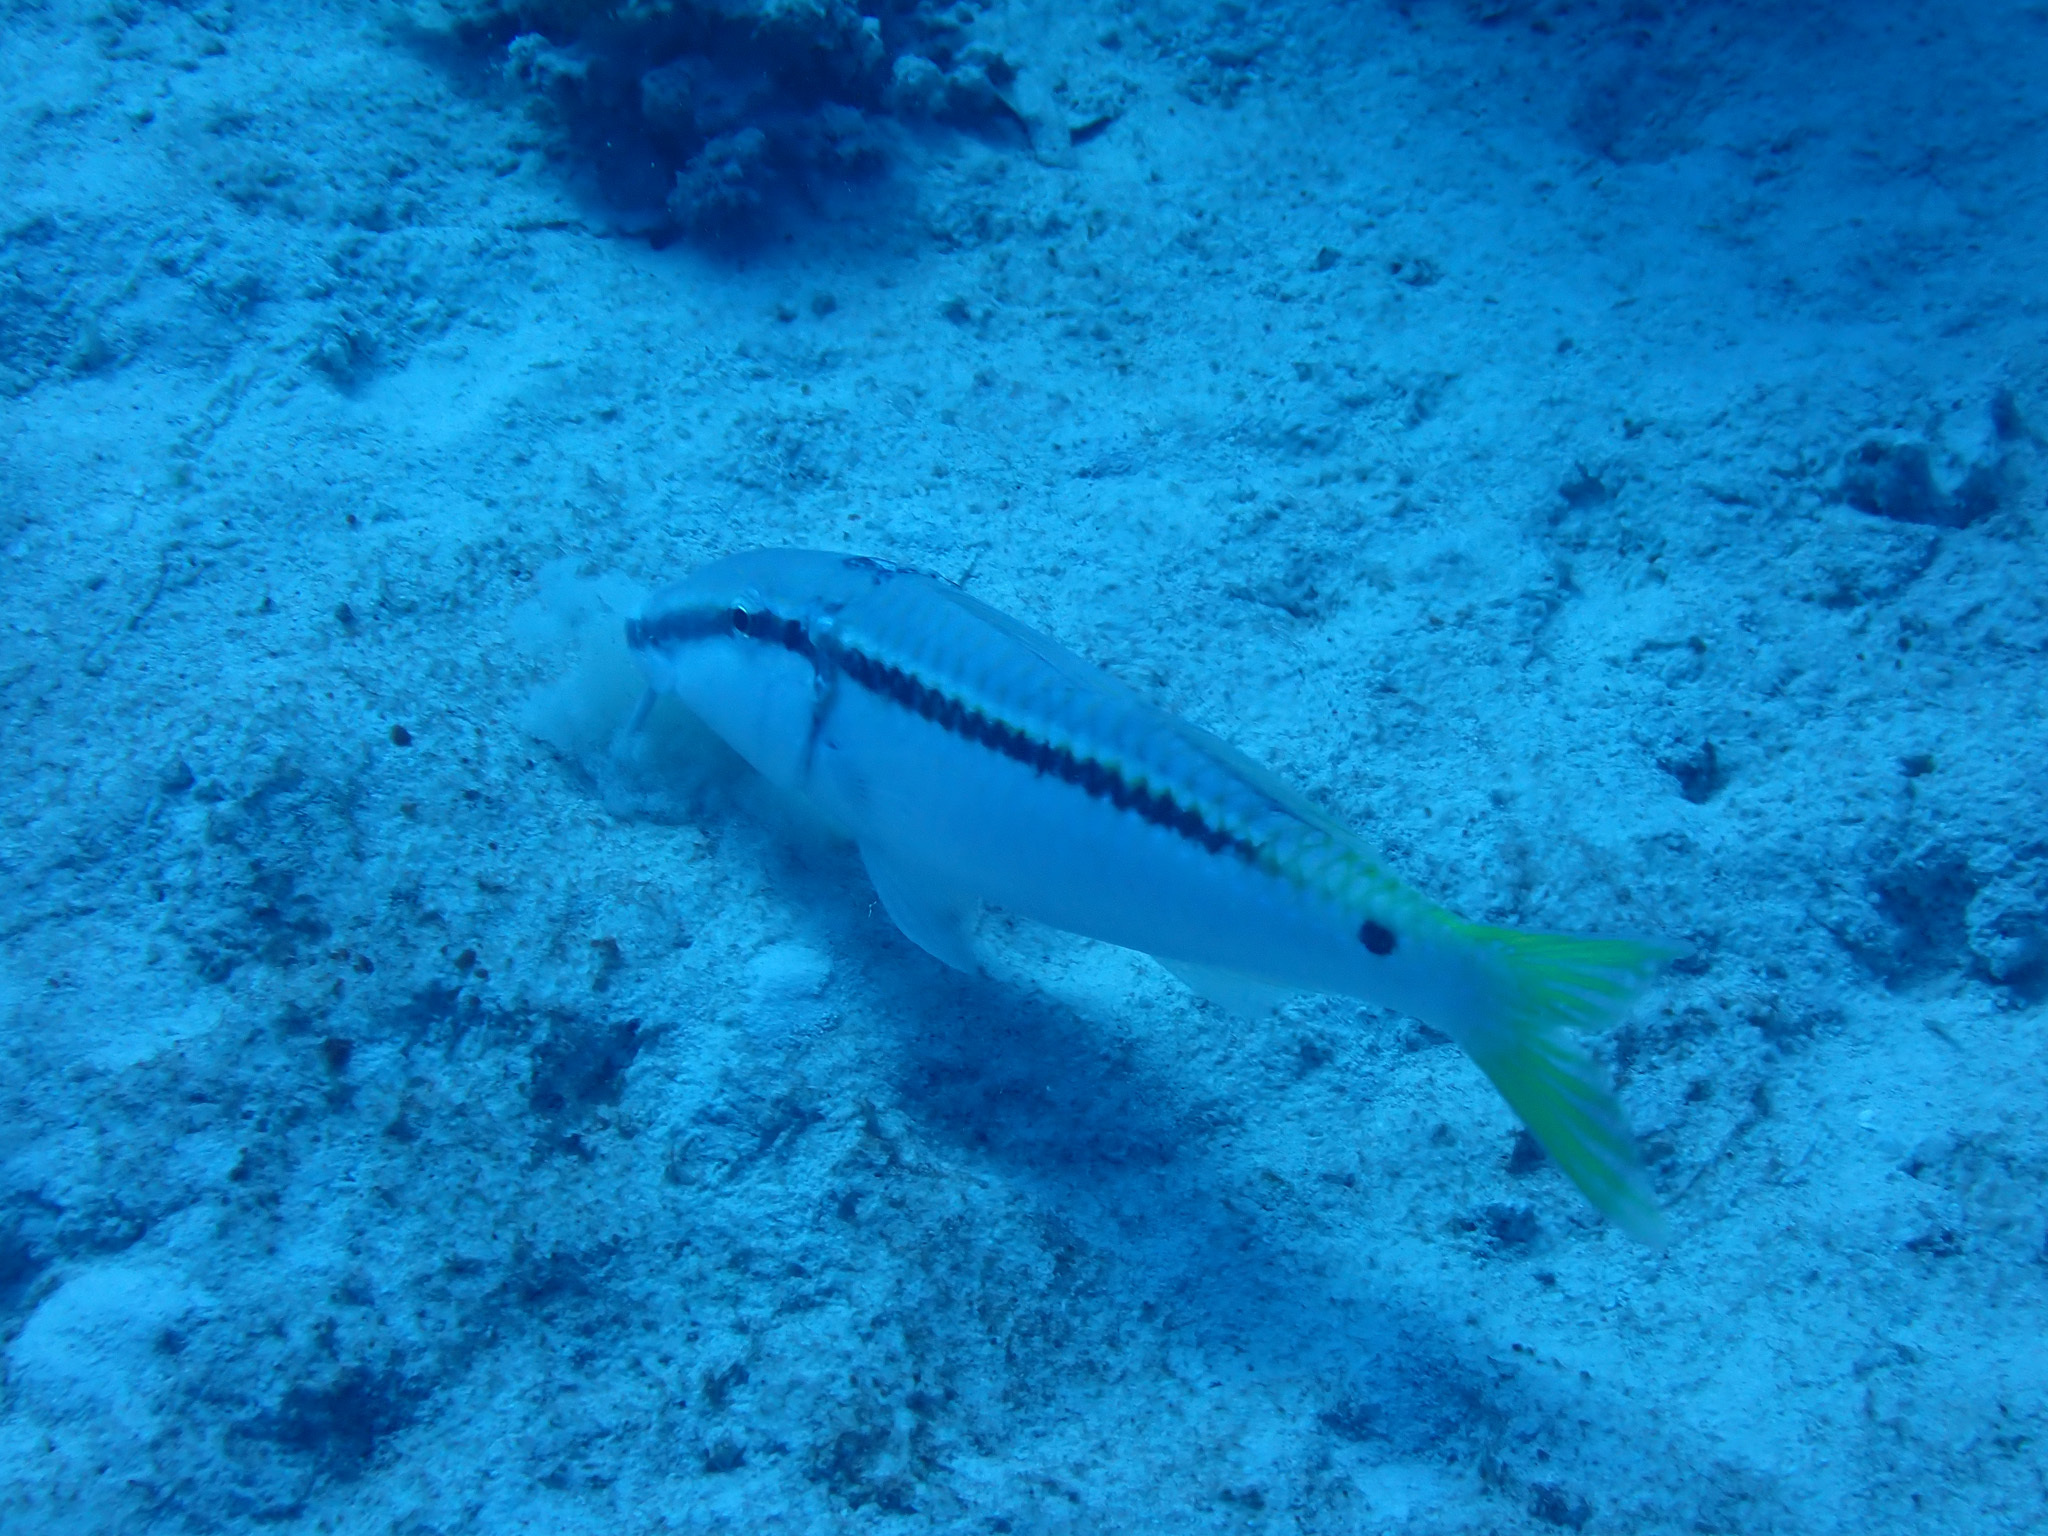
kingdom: Animalia
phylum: Chordata
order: Perciformes
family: Mullidae
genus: Parupeneus
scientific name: Parupeneus forsskali
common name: Red sea goatfish
